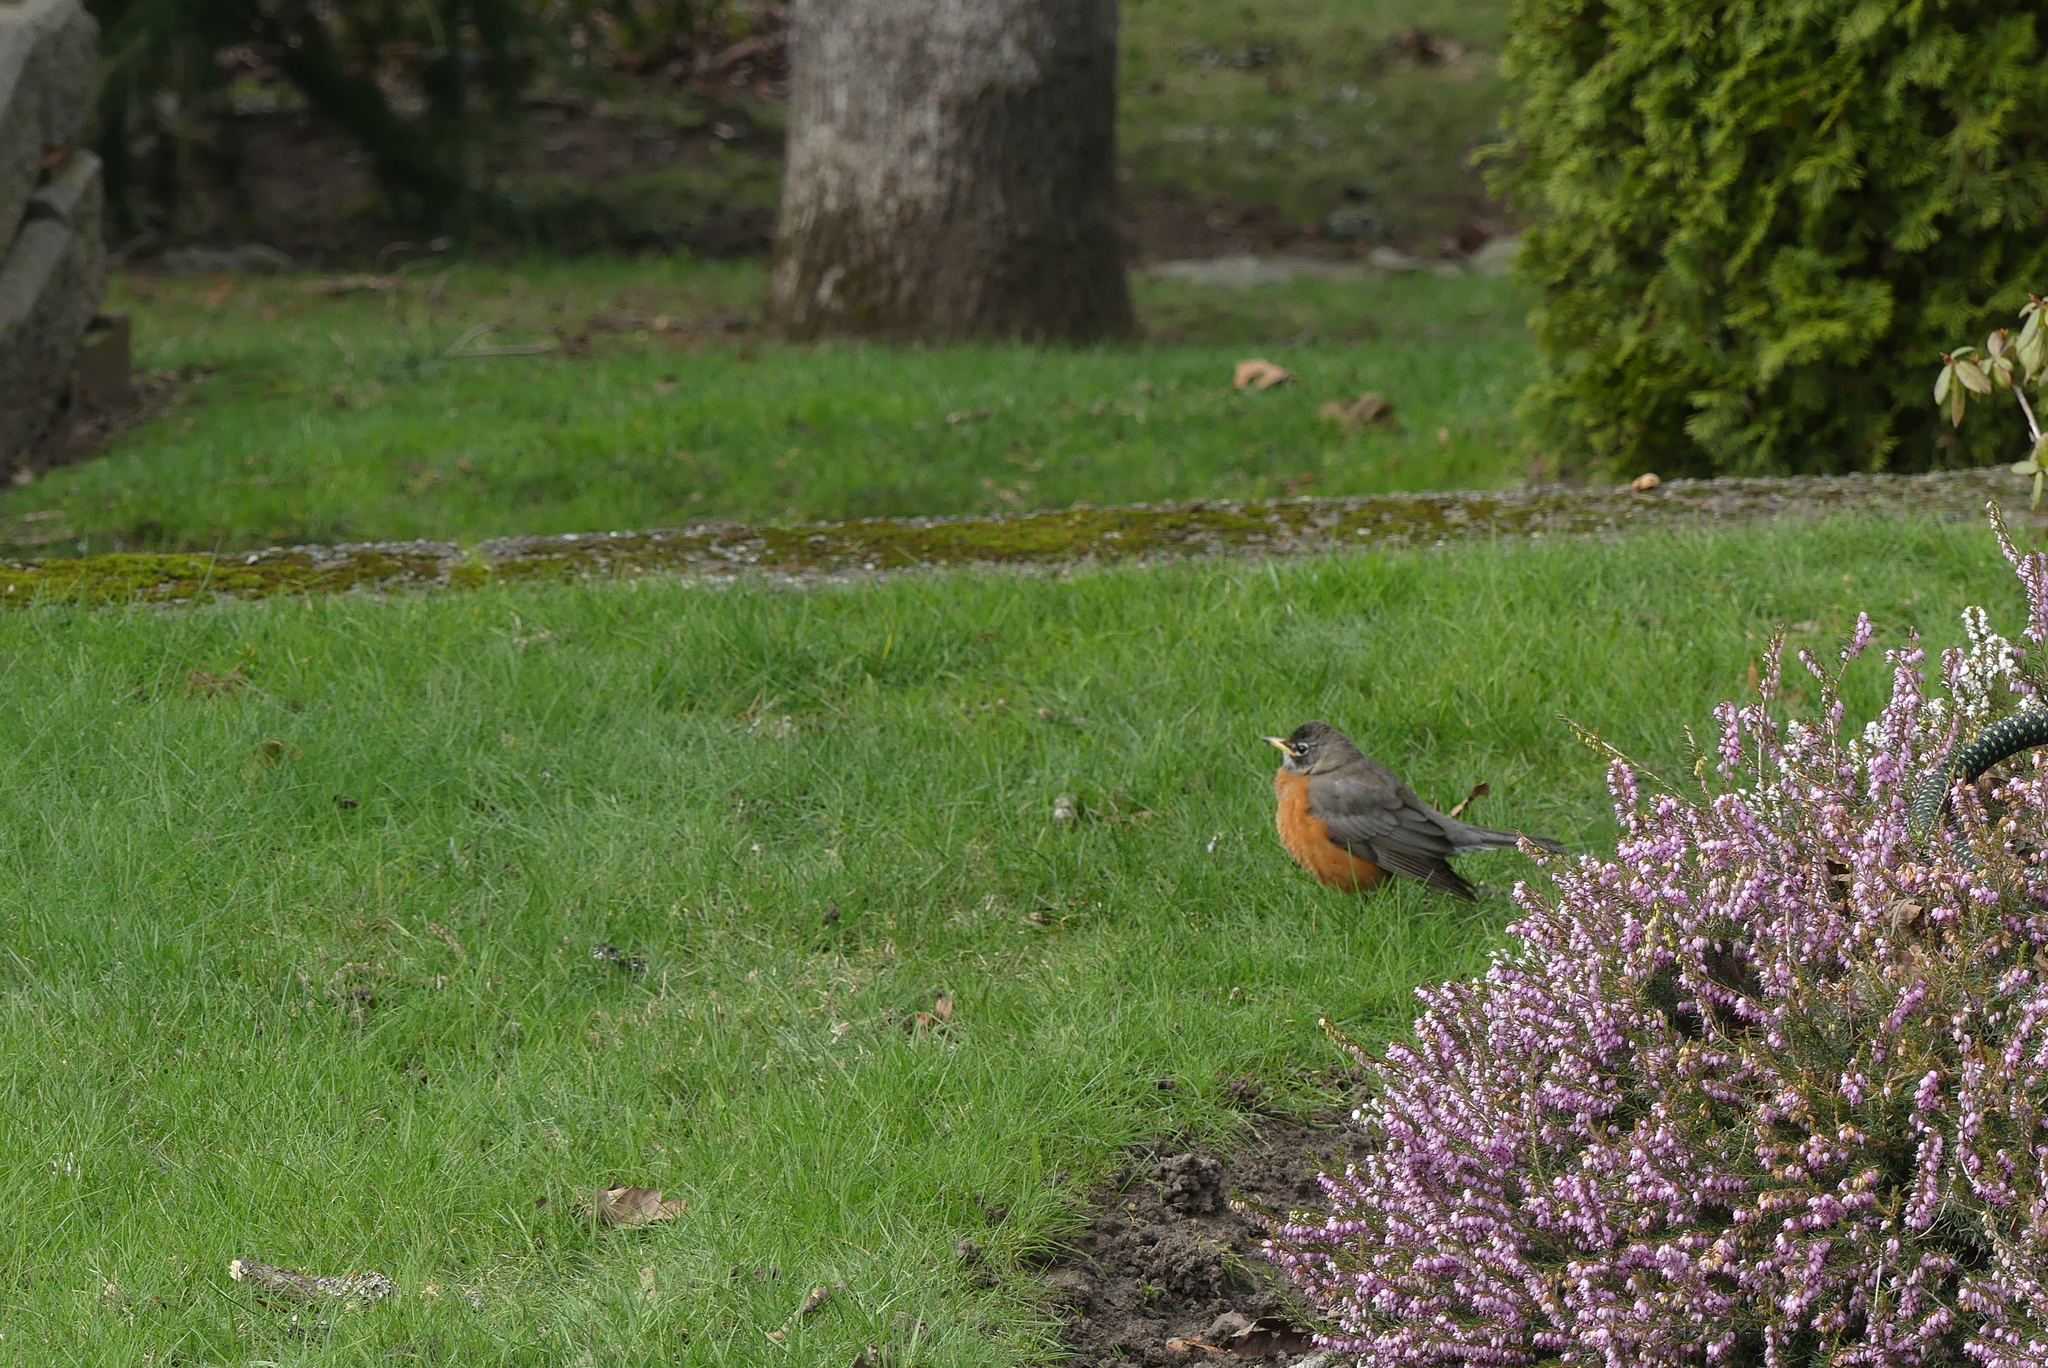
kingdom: Animalia
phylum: Chordata
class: Aves
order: Passeriformes
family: Turdidae
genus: Turdus
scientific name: Turdus migratorius
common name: American robin
